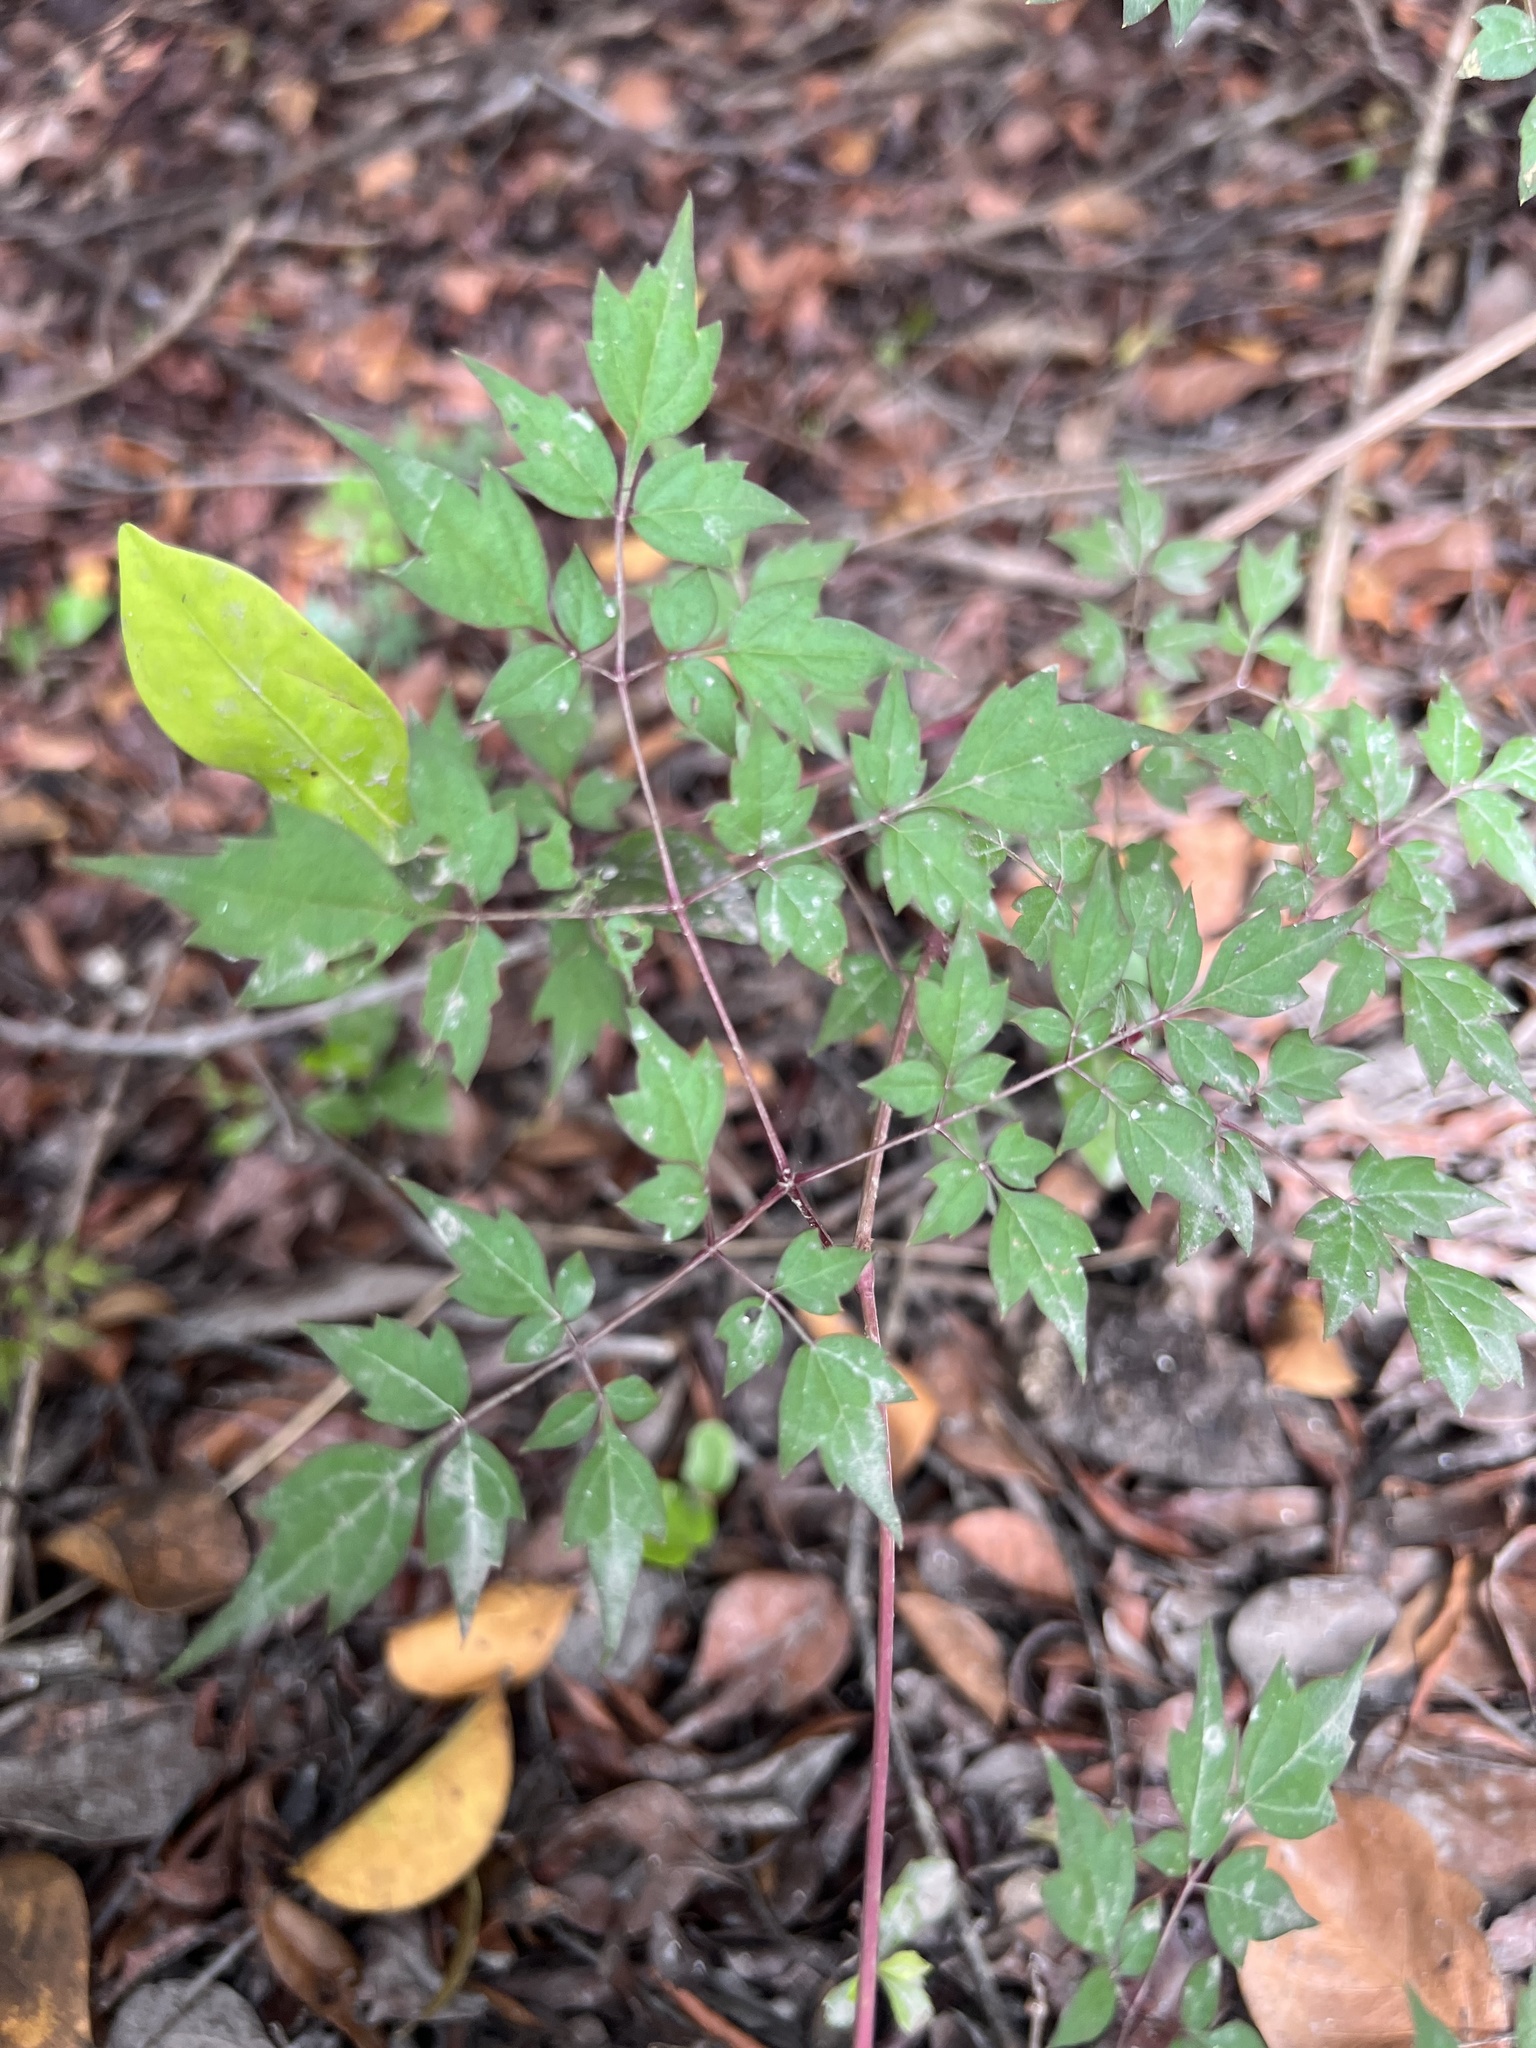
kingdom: Plantae
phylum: Tracheophyta
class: Magnoliopsida
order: Vitales
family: Vitaceae
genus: Nekemias
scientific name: Nekemias arborea
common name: Peppervine
